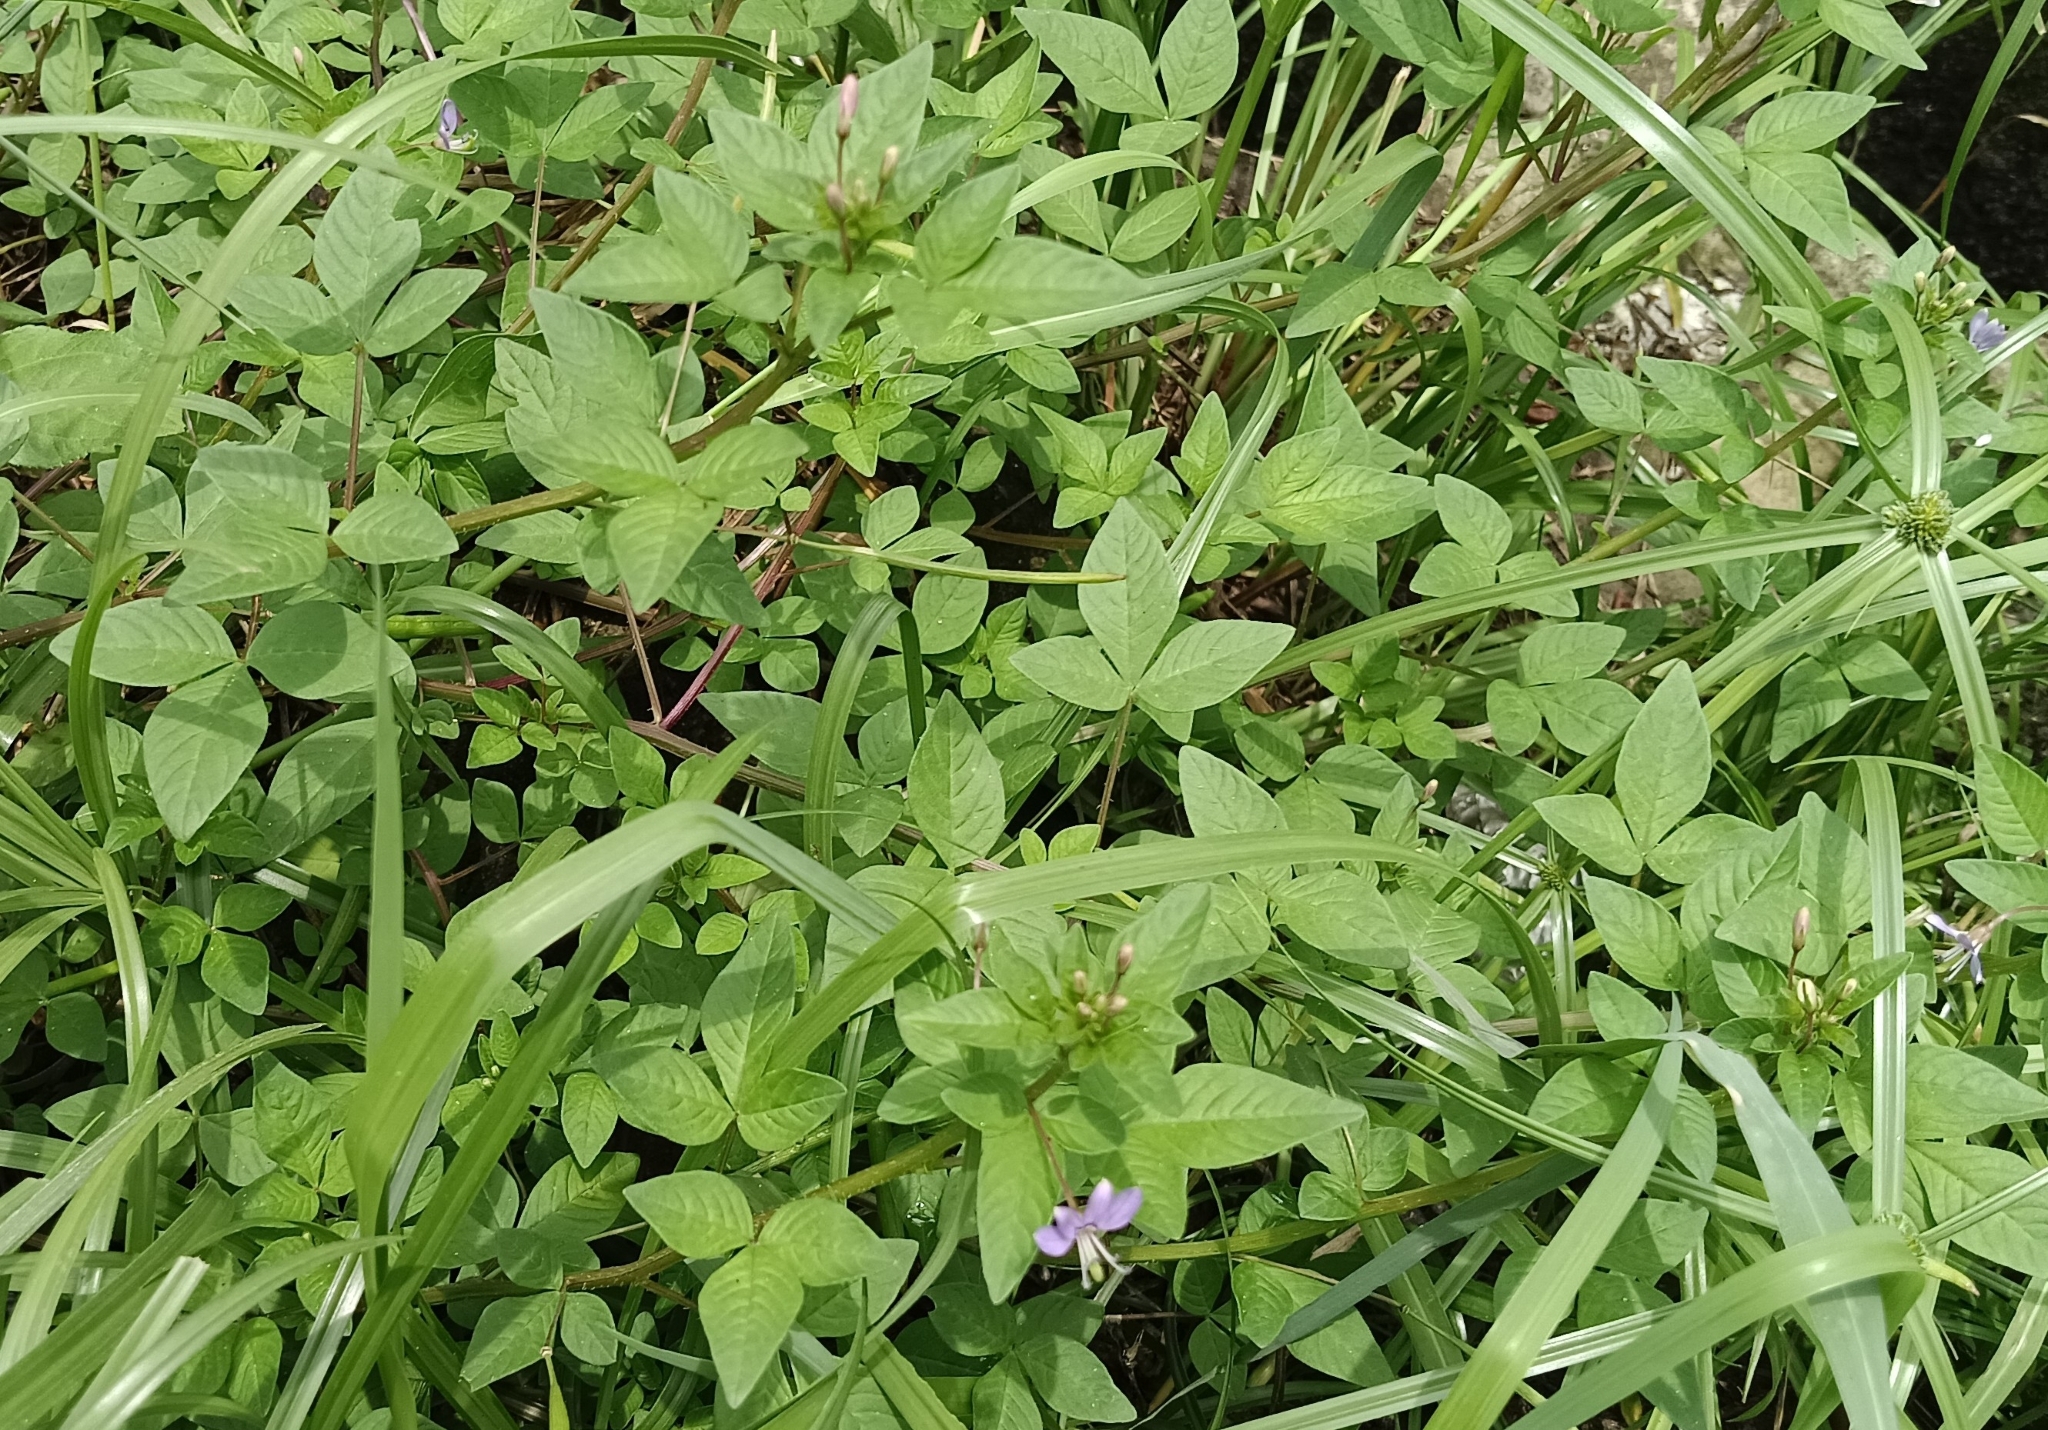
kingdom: Plantae
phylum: Tracheophyta
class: Magnoliopsida
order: Brassicales
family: Cleomaceae
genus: Sieruela
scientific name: Sieruela rutidosperma
